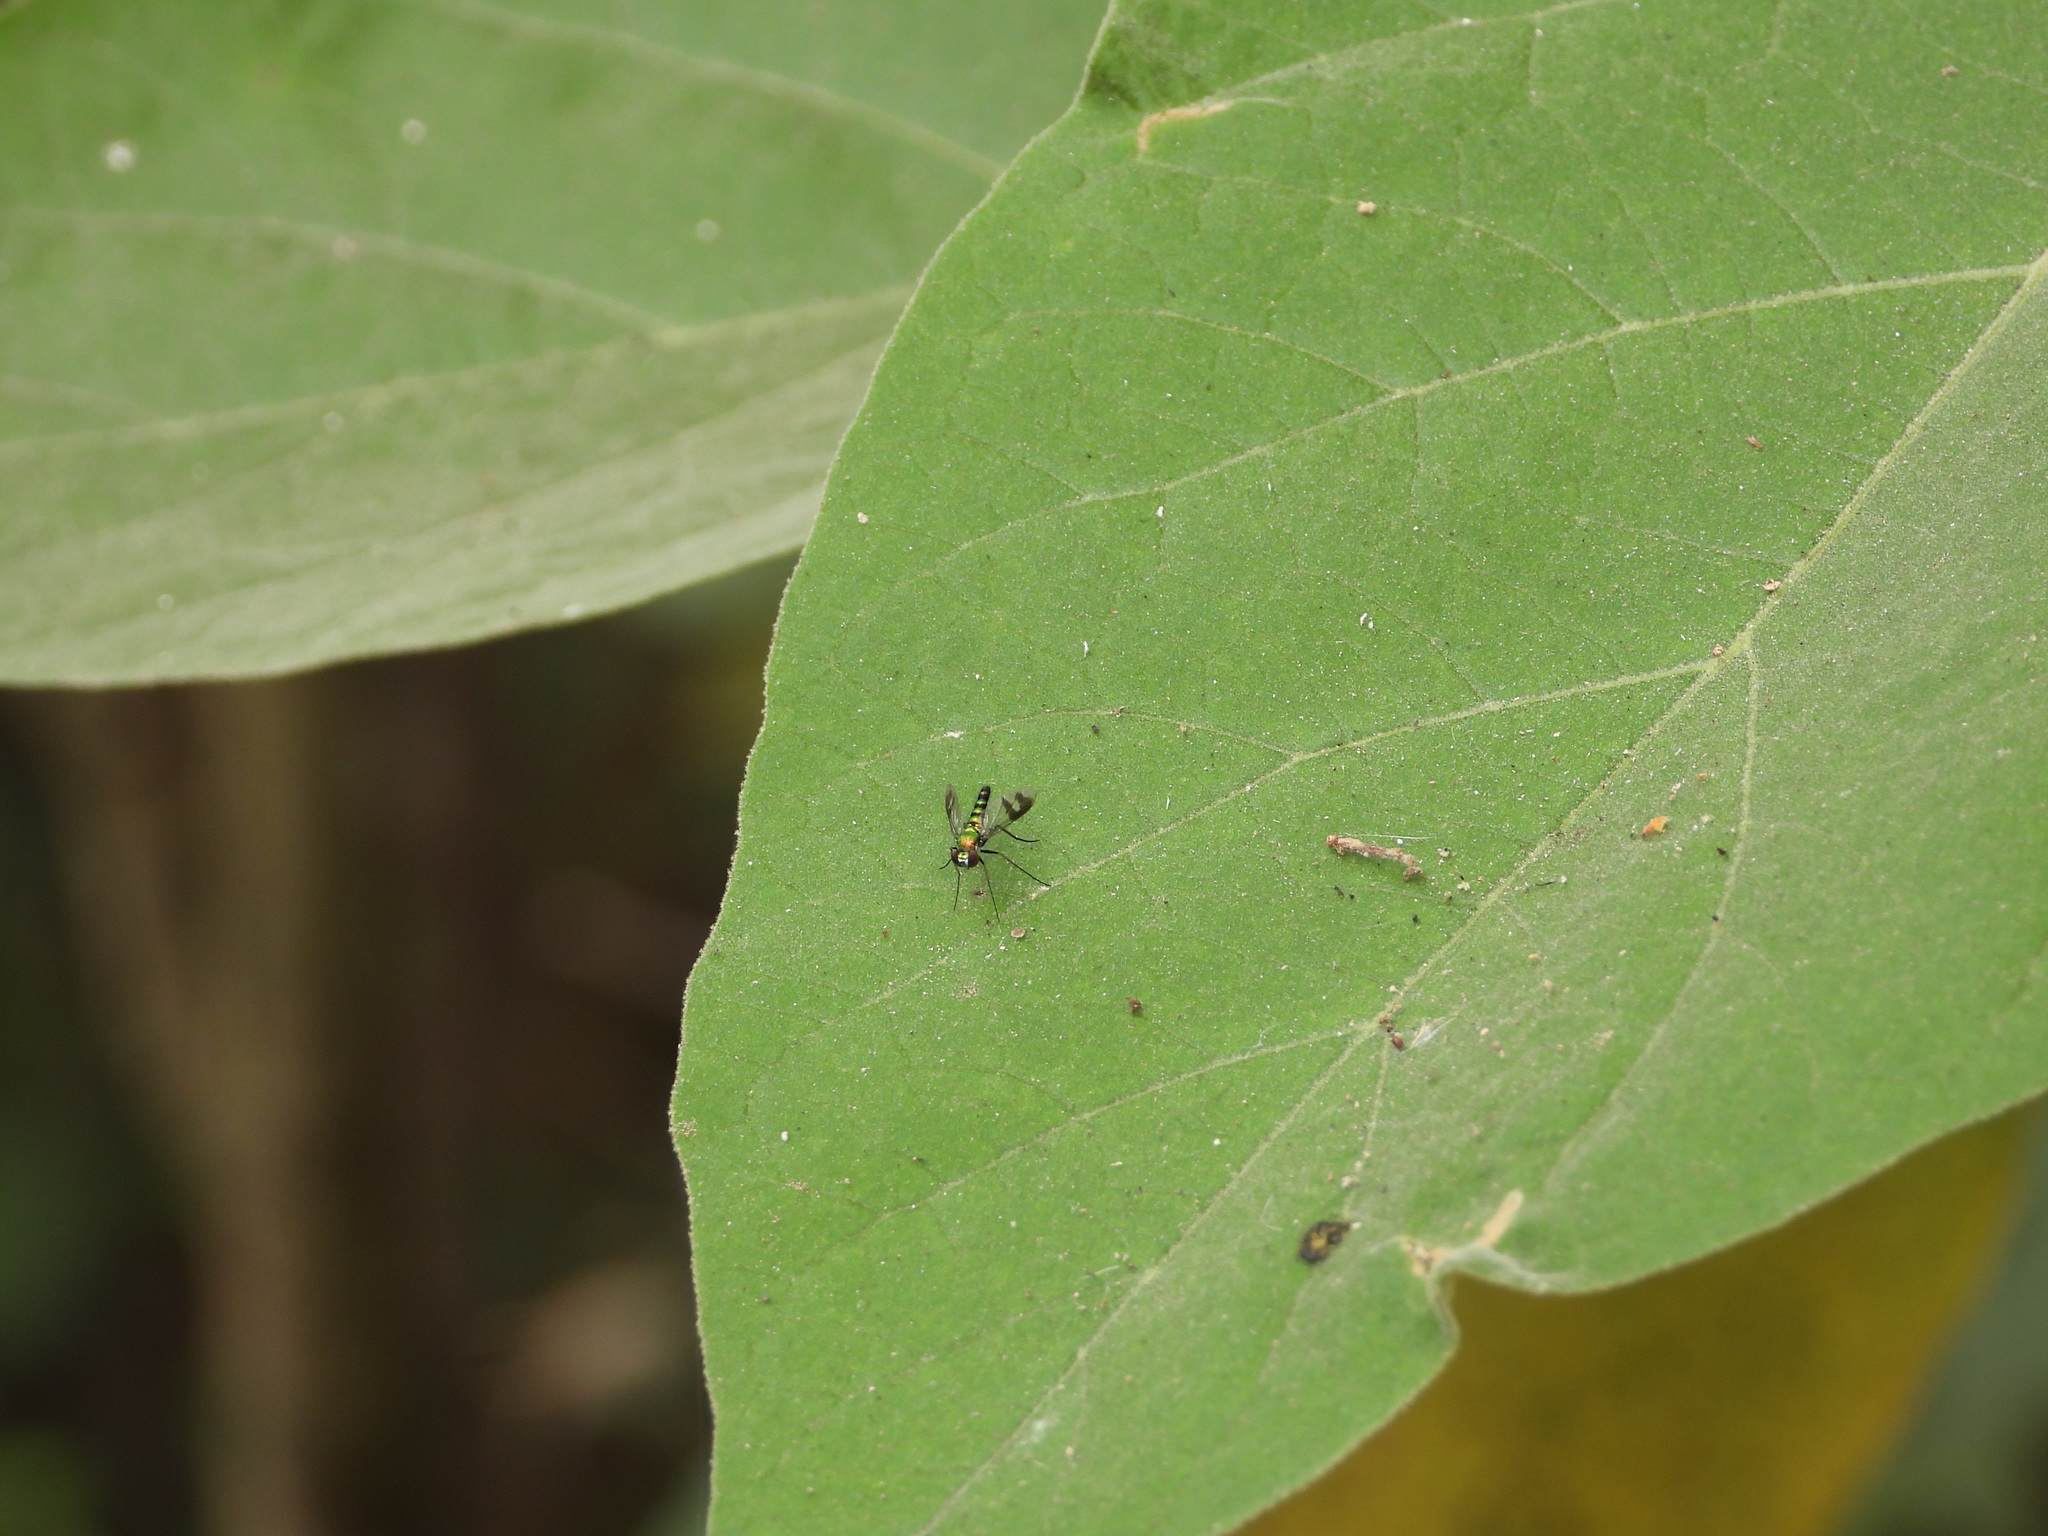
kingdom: Animalia
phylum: Arthropoda
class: Insecta
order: Diptera
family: Dolichopodidae
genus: Condylostylus
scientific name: Condylostylus quadricolor
